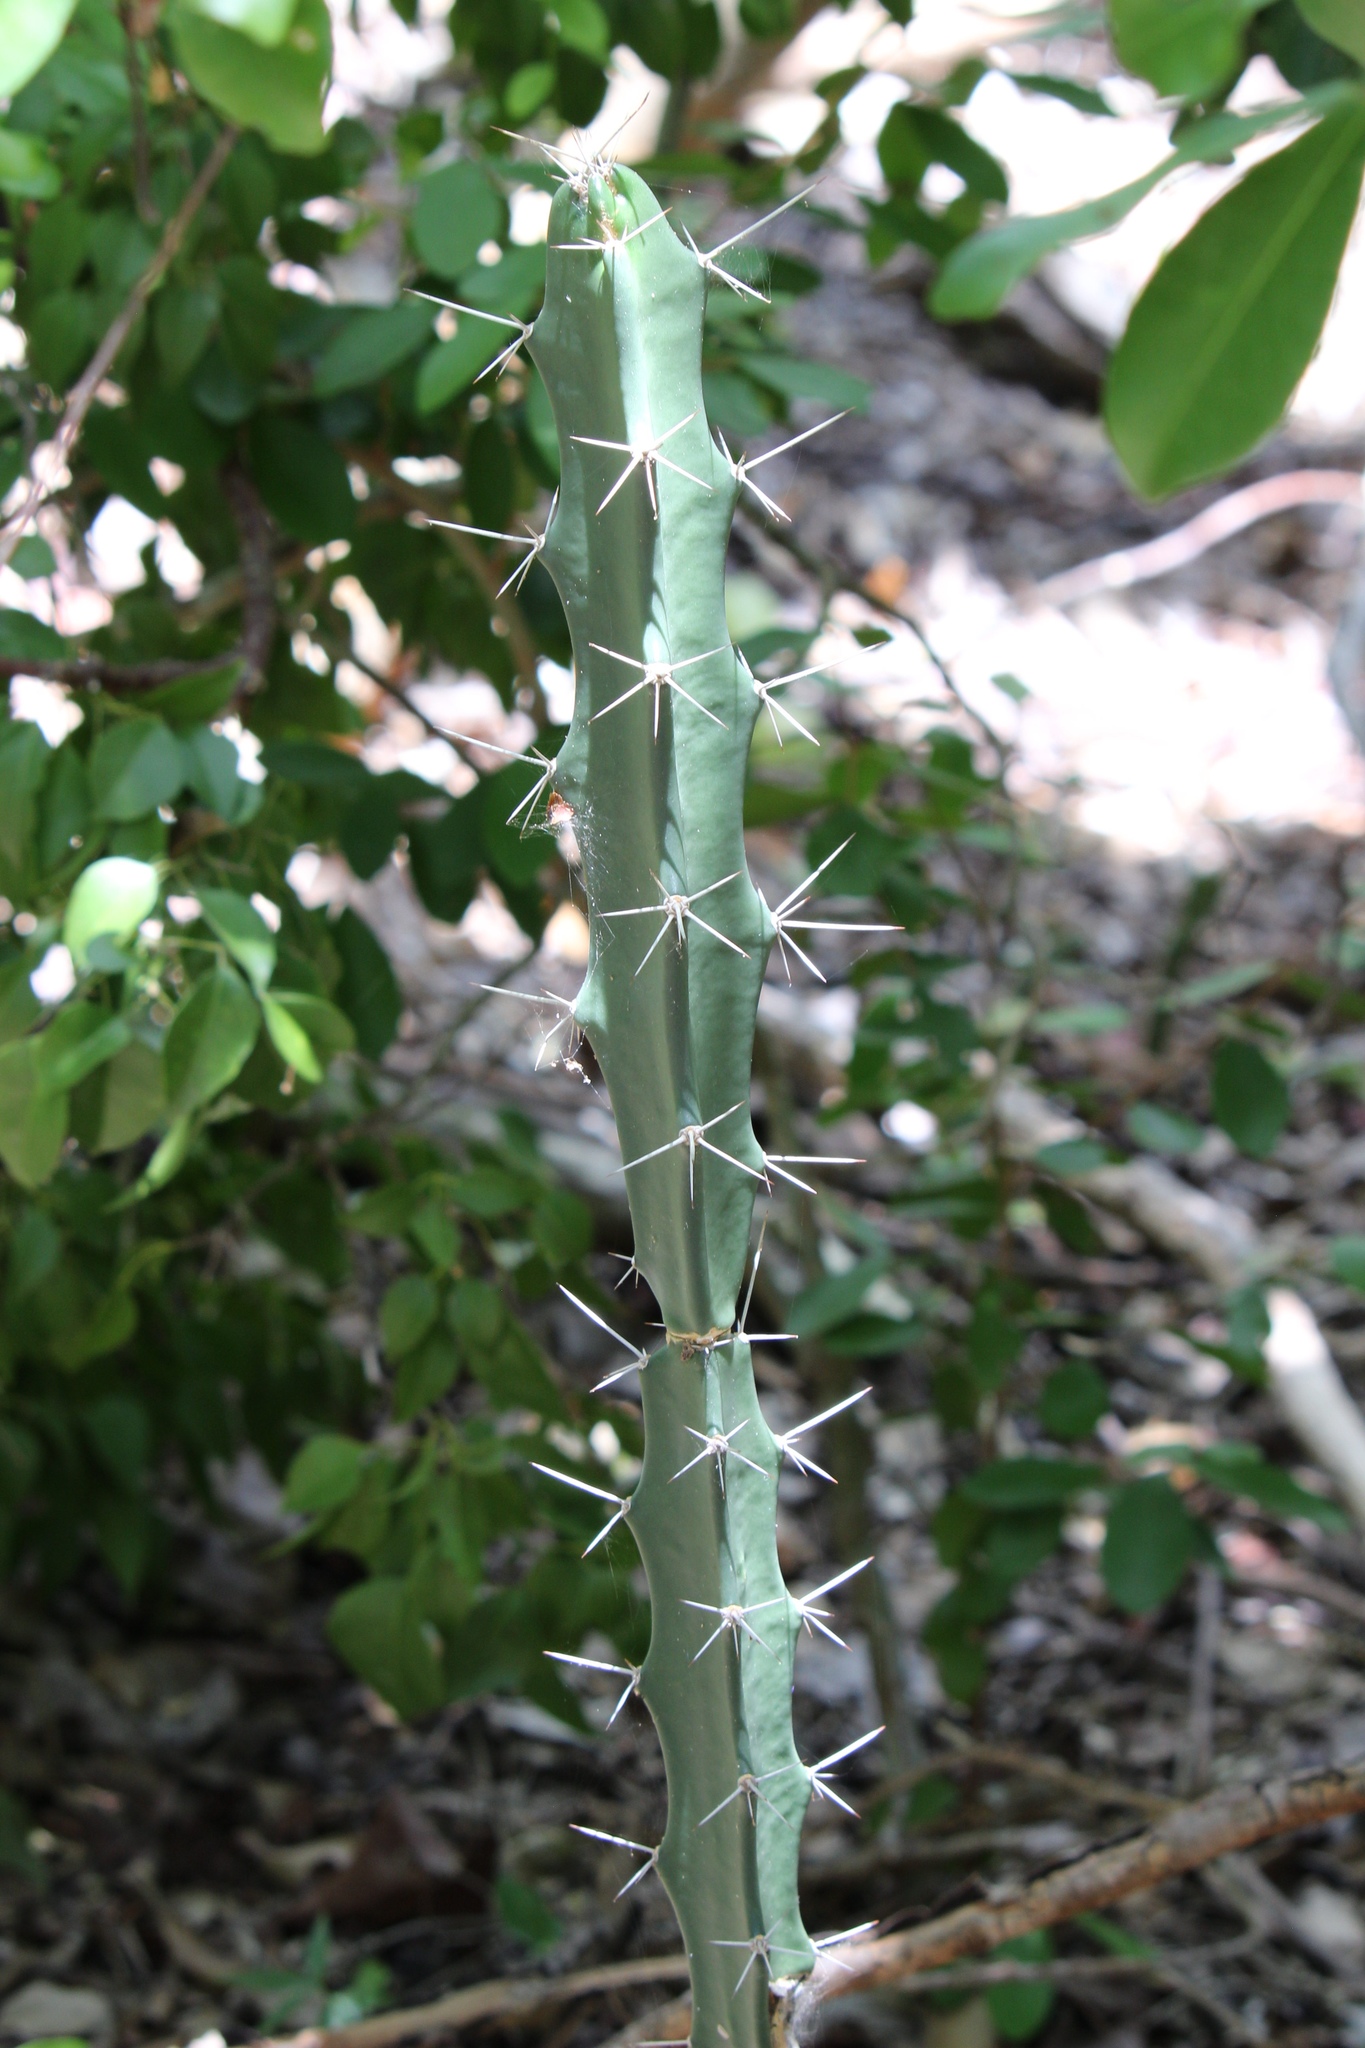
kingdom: Plantae
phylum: Tracheophyta
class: Magnoliopsida
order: Caryophyllales
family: Cactaceae
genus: Acanthocereus
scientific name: Acanthocereus tetragonus
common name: Triangle cactus
